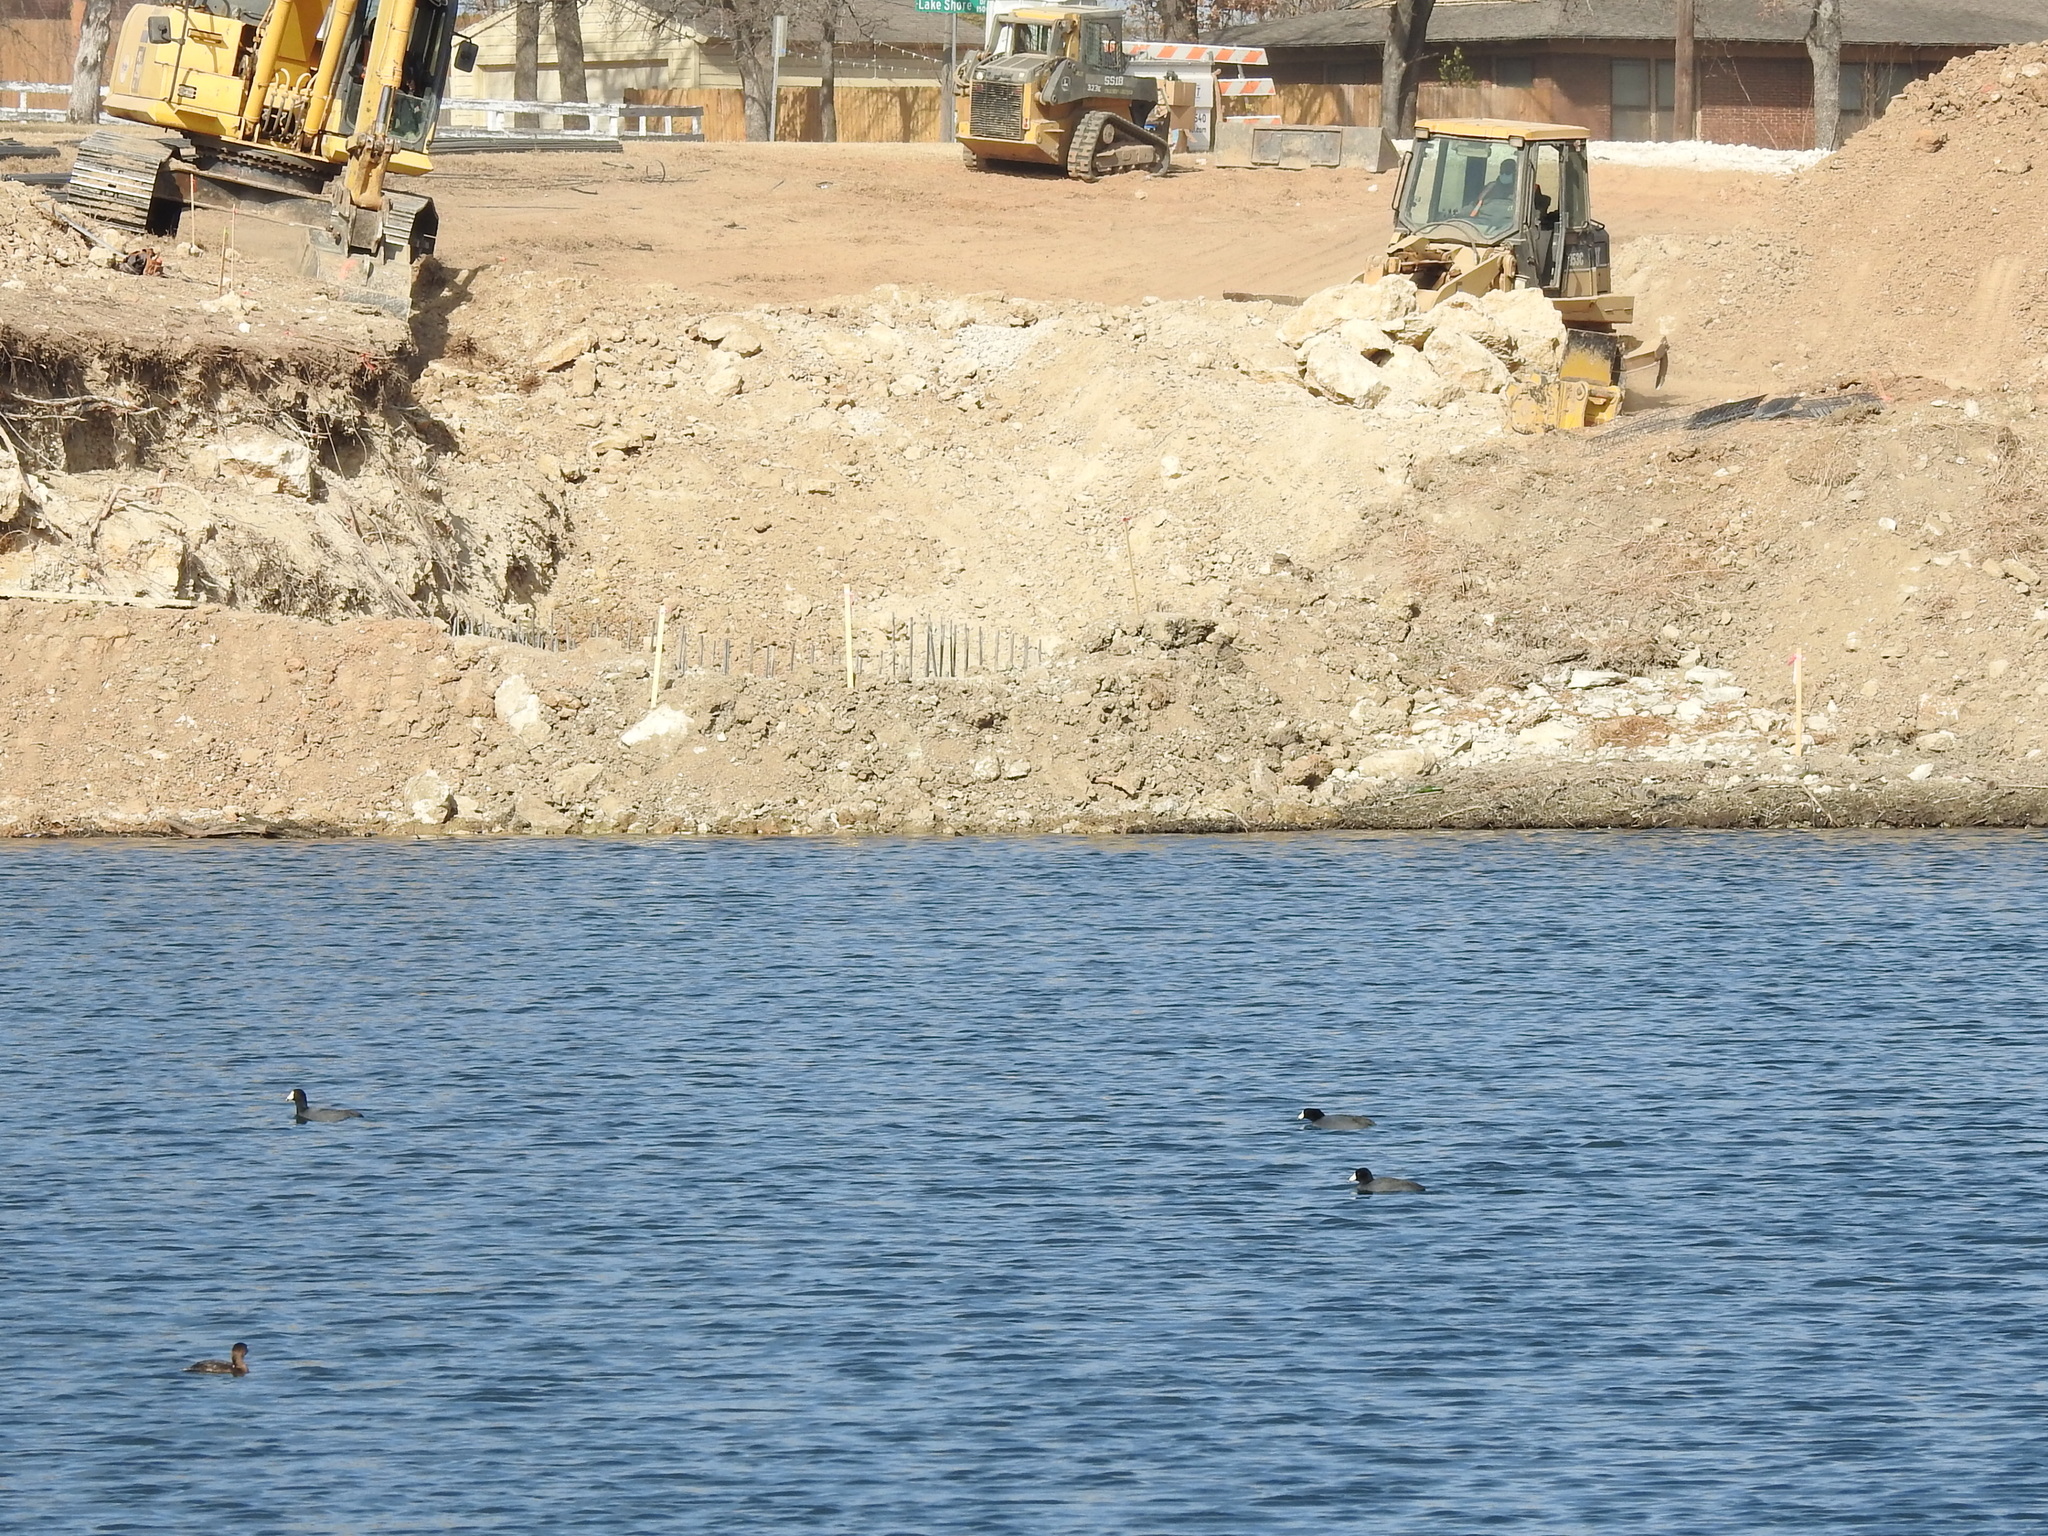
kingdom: Animalia
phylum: Chordata
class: Aves
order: Gruiformes
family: Rallidae
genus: Fulica
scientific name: Fulica americana
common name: American coot
